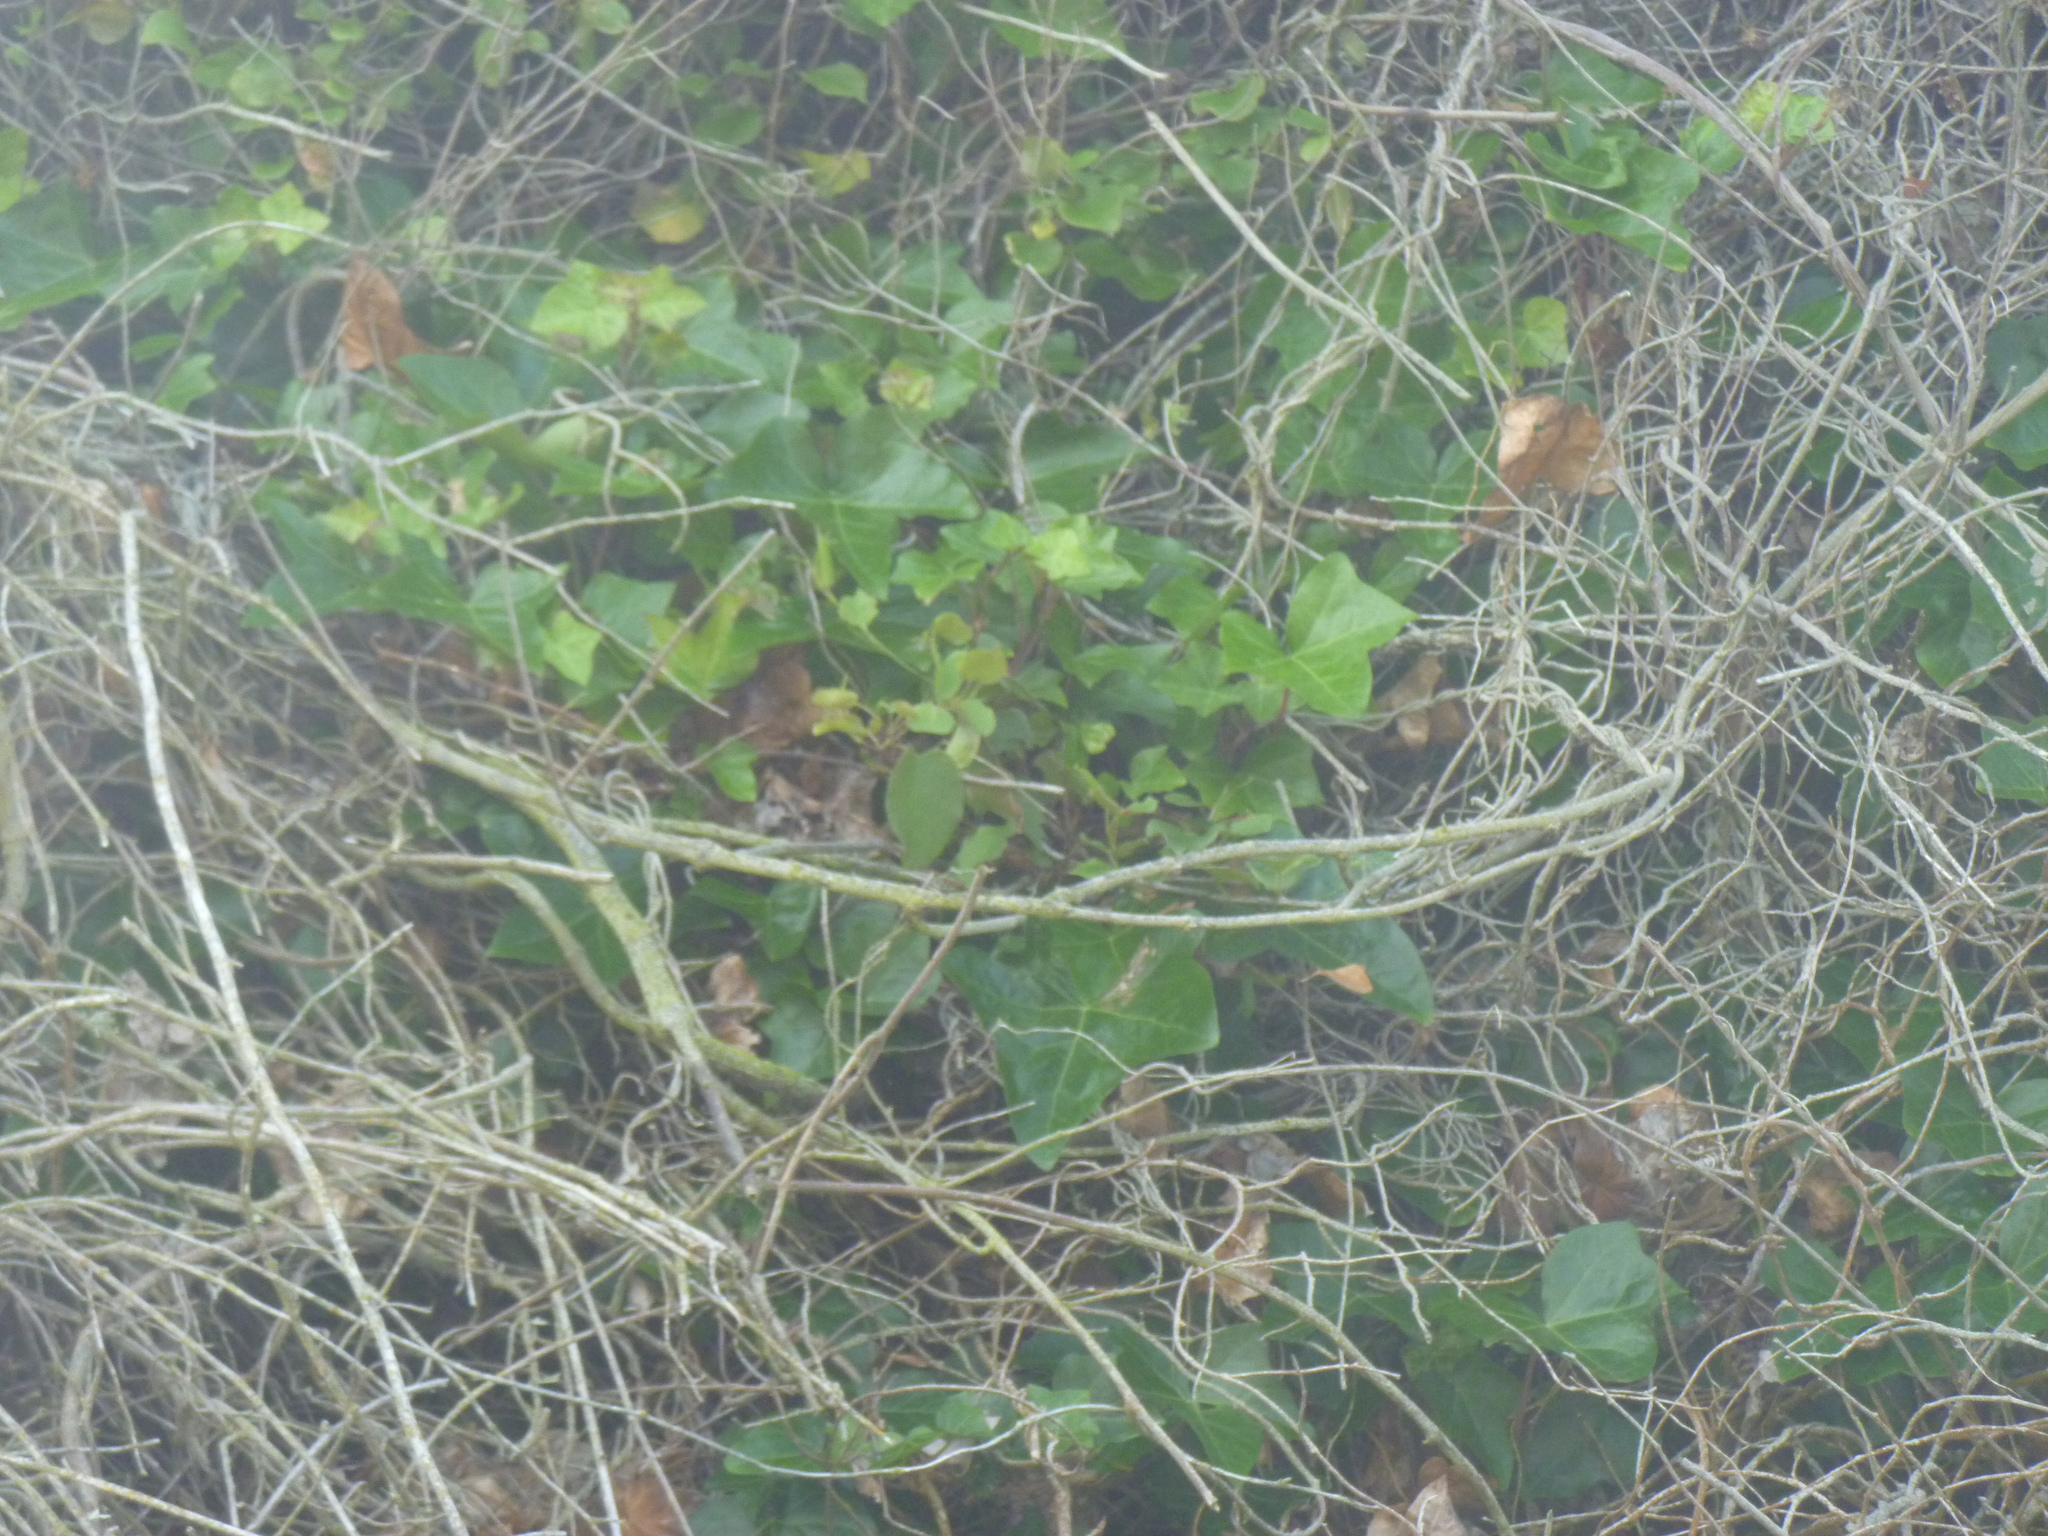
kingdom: Plantae
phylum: Tracheophyta
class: Magnoliopsida
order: Apiales
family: Araliaceae
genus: Hedera
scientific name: Hedera helix
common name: Ivy
